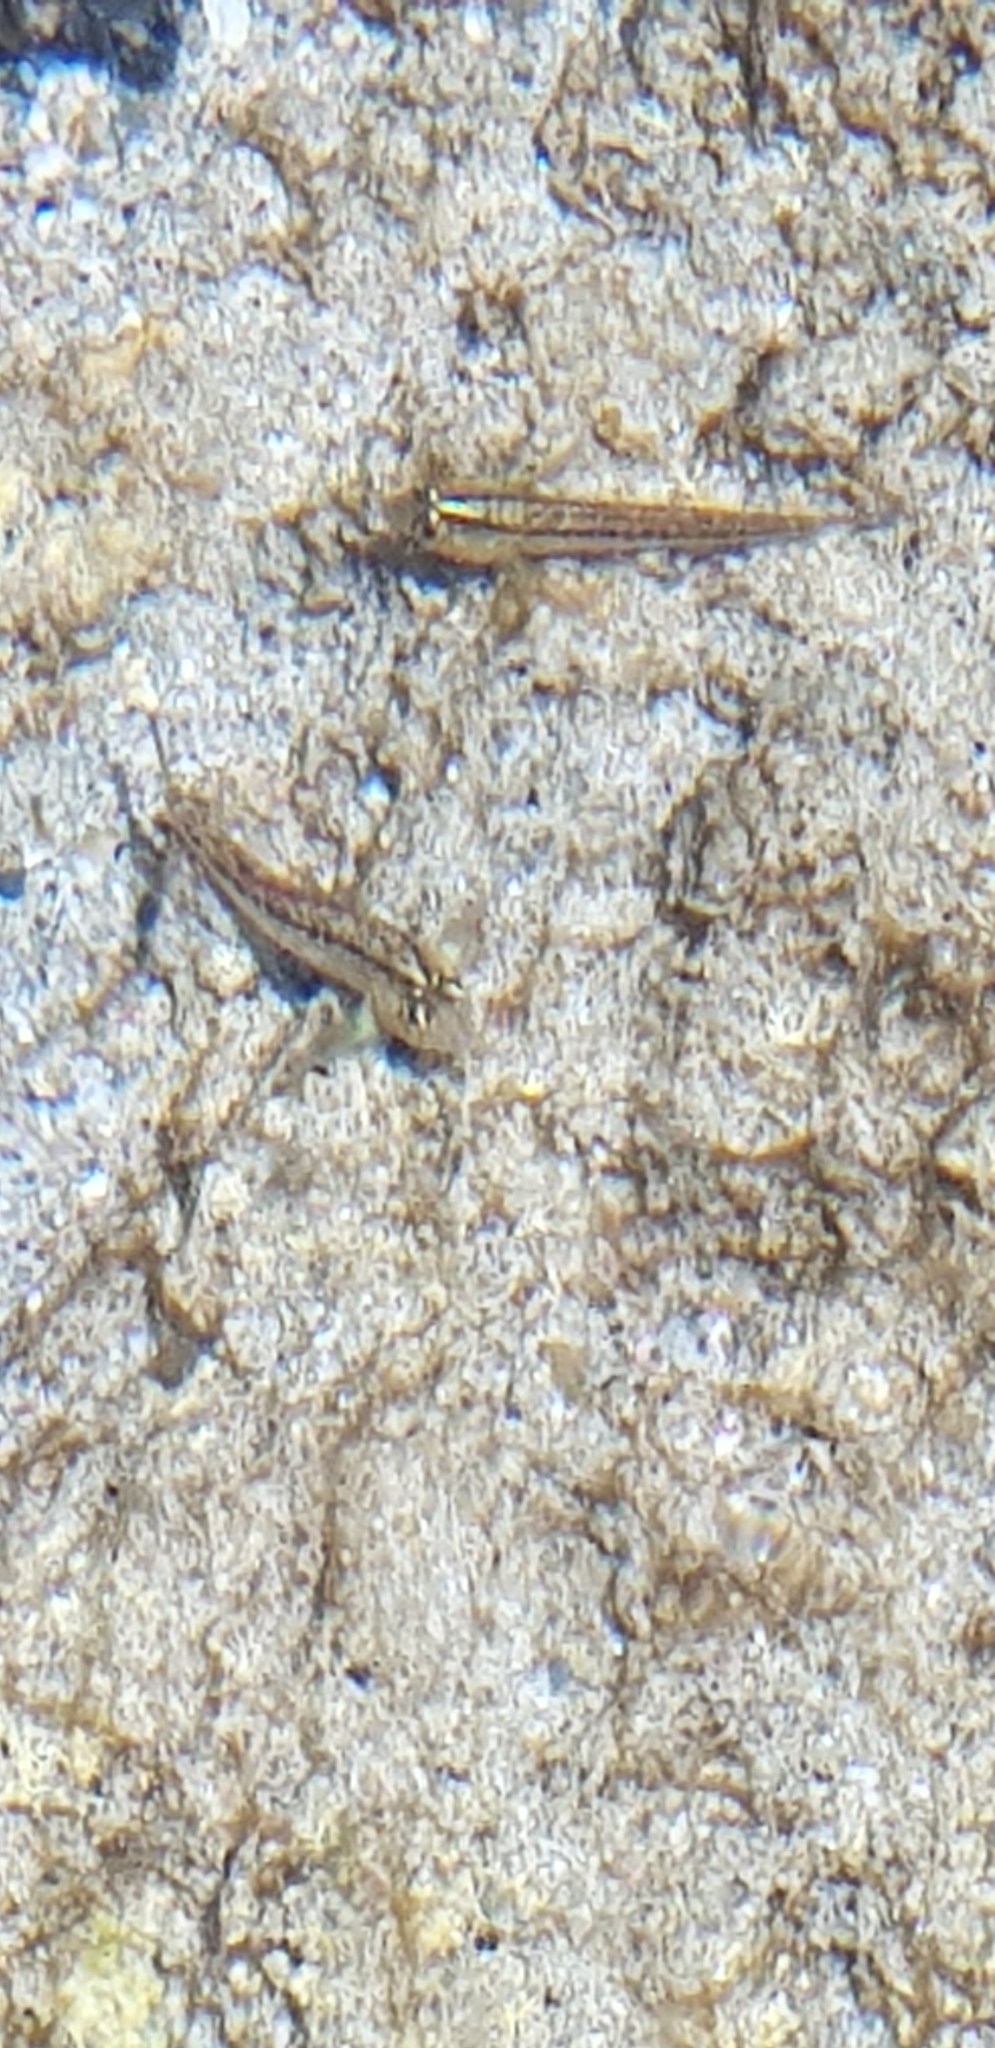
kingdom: Animalia
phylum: Chordata
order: Perciformes
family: Tripterygiidae
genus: Forsterygion
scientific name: Forsterygion lapillum
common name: Common triplefin
